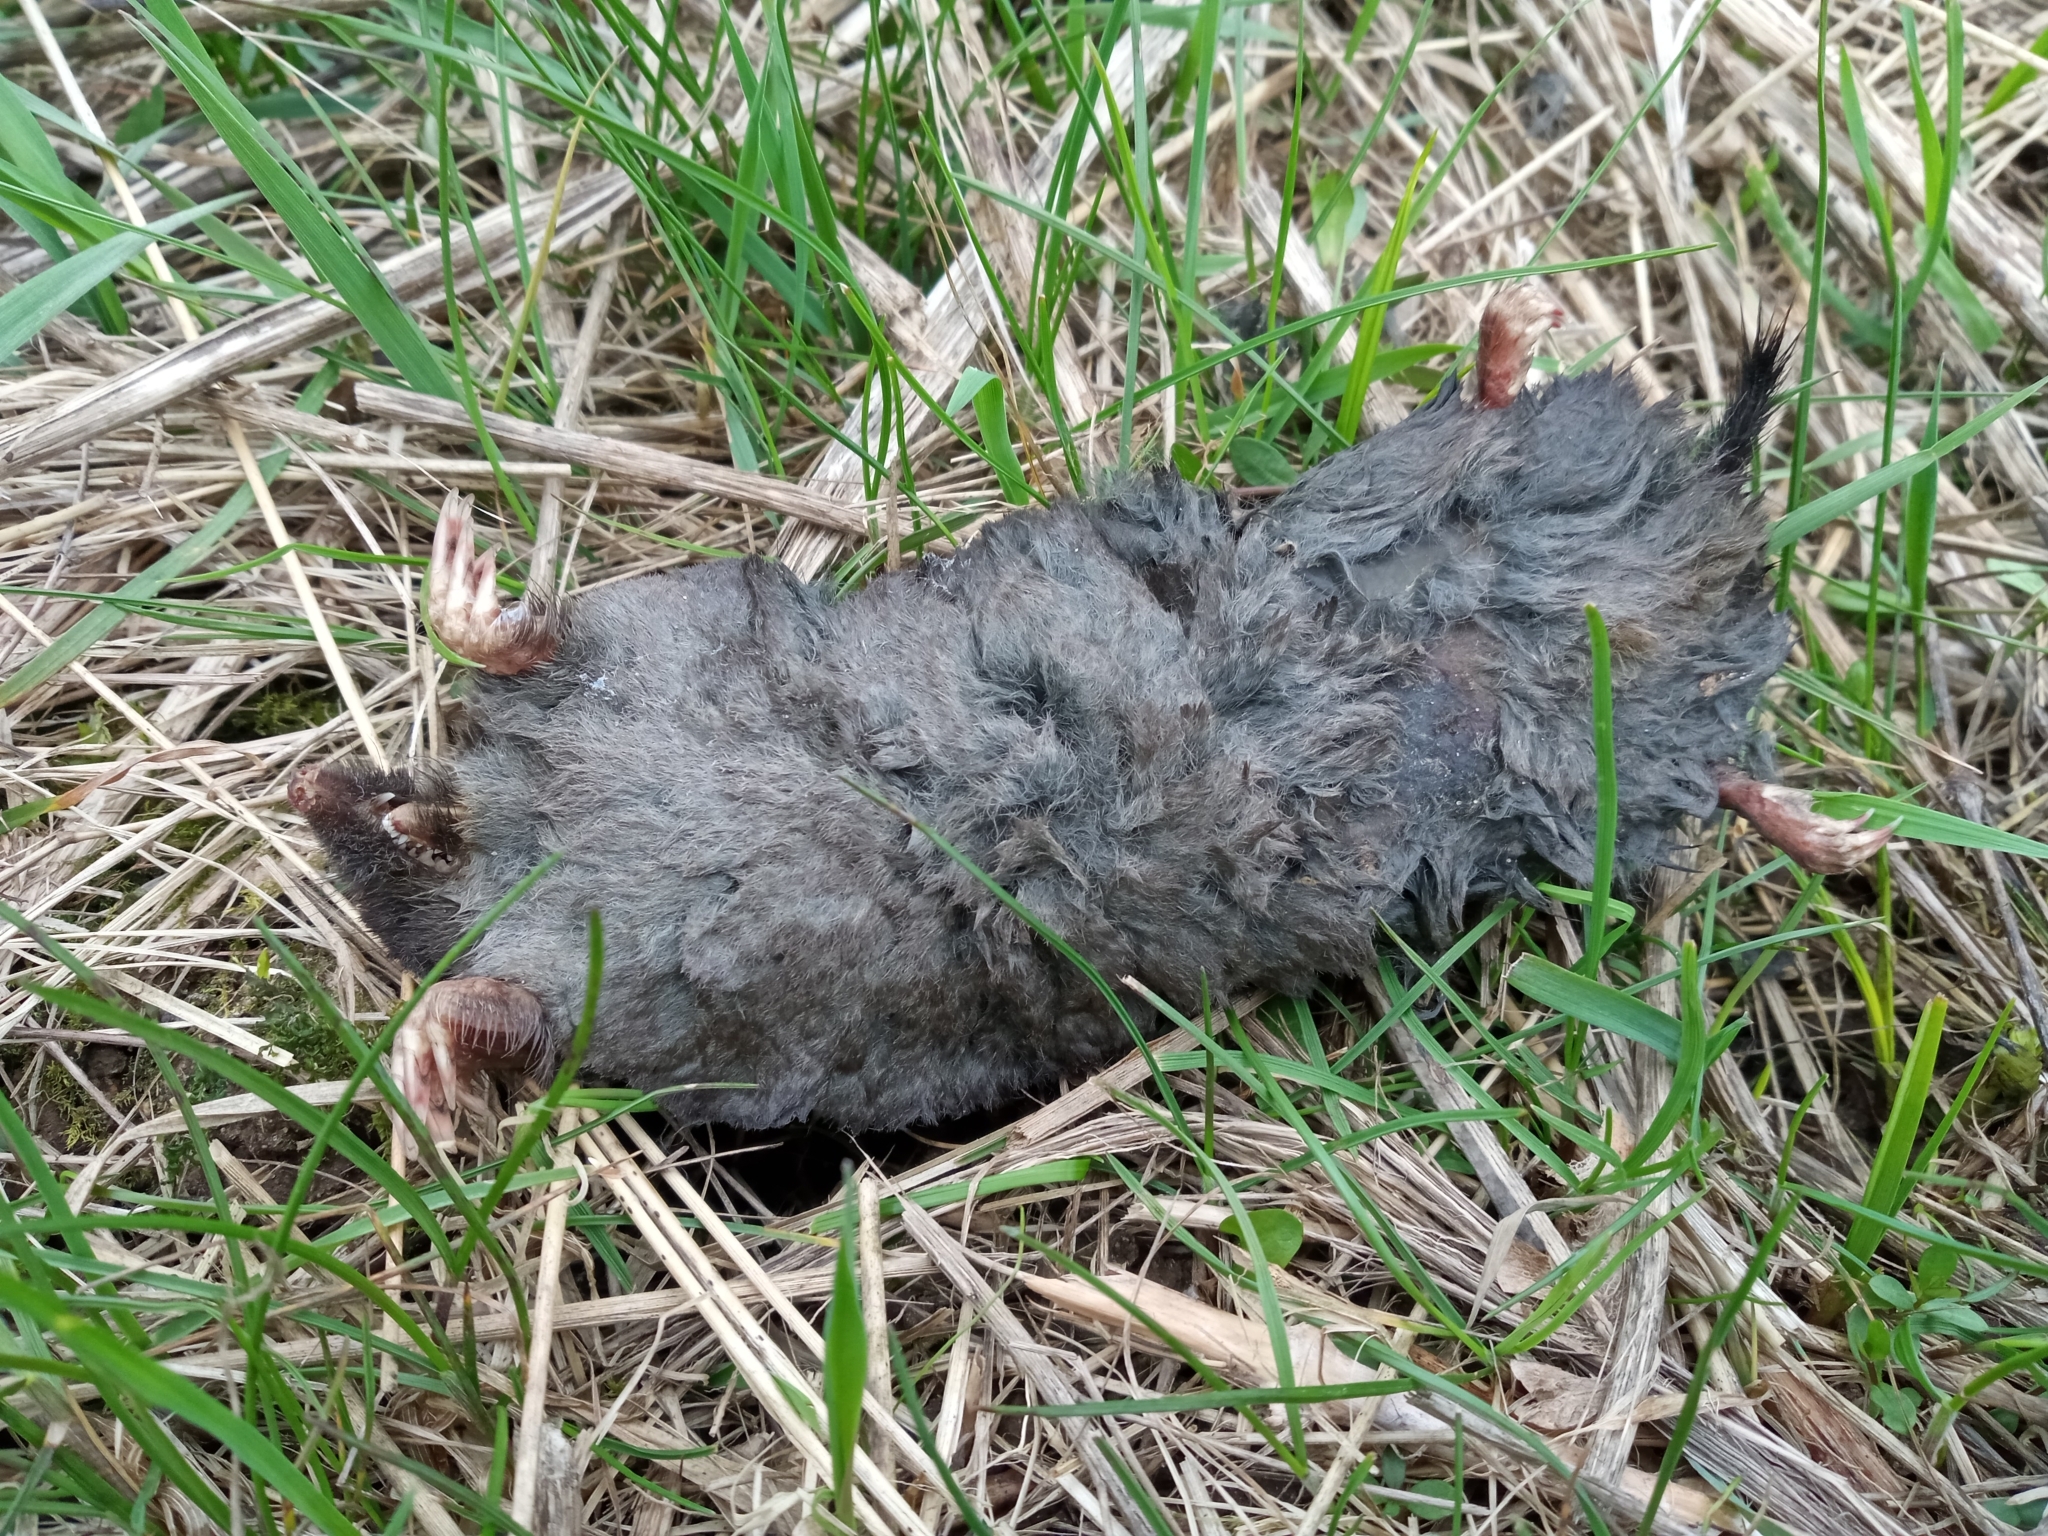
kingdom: Animalia
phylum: Chordata
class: Mammalia
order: Soricomorpha
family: Talpidae
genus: Talpa
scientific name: Talpa europaea
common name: European mole
